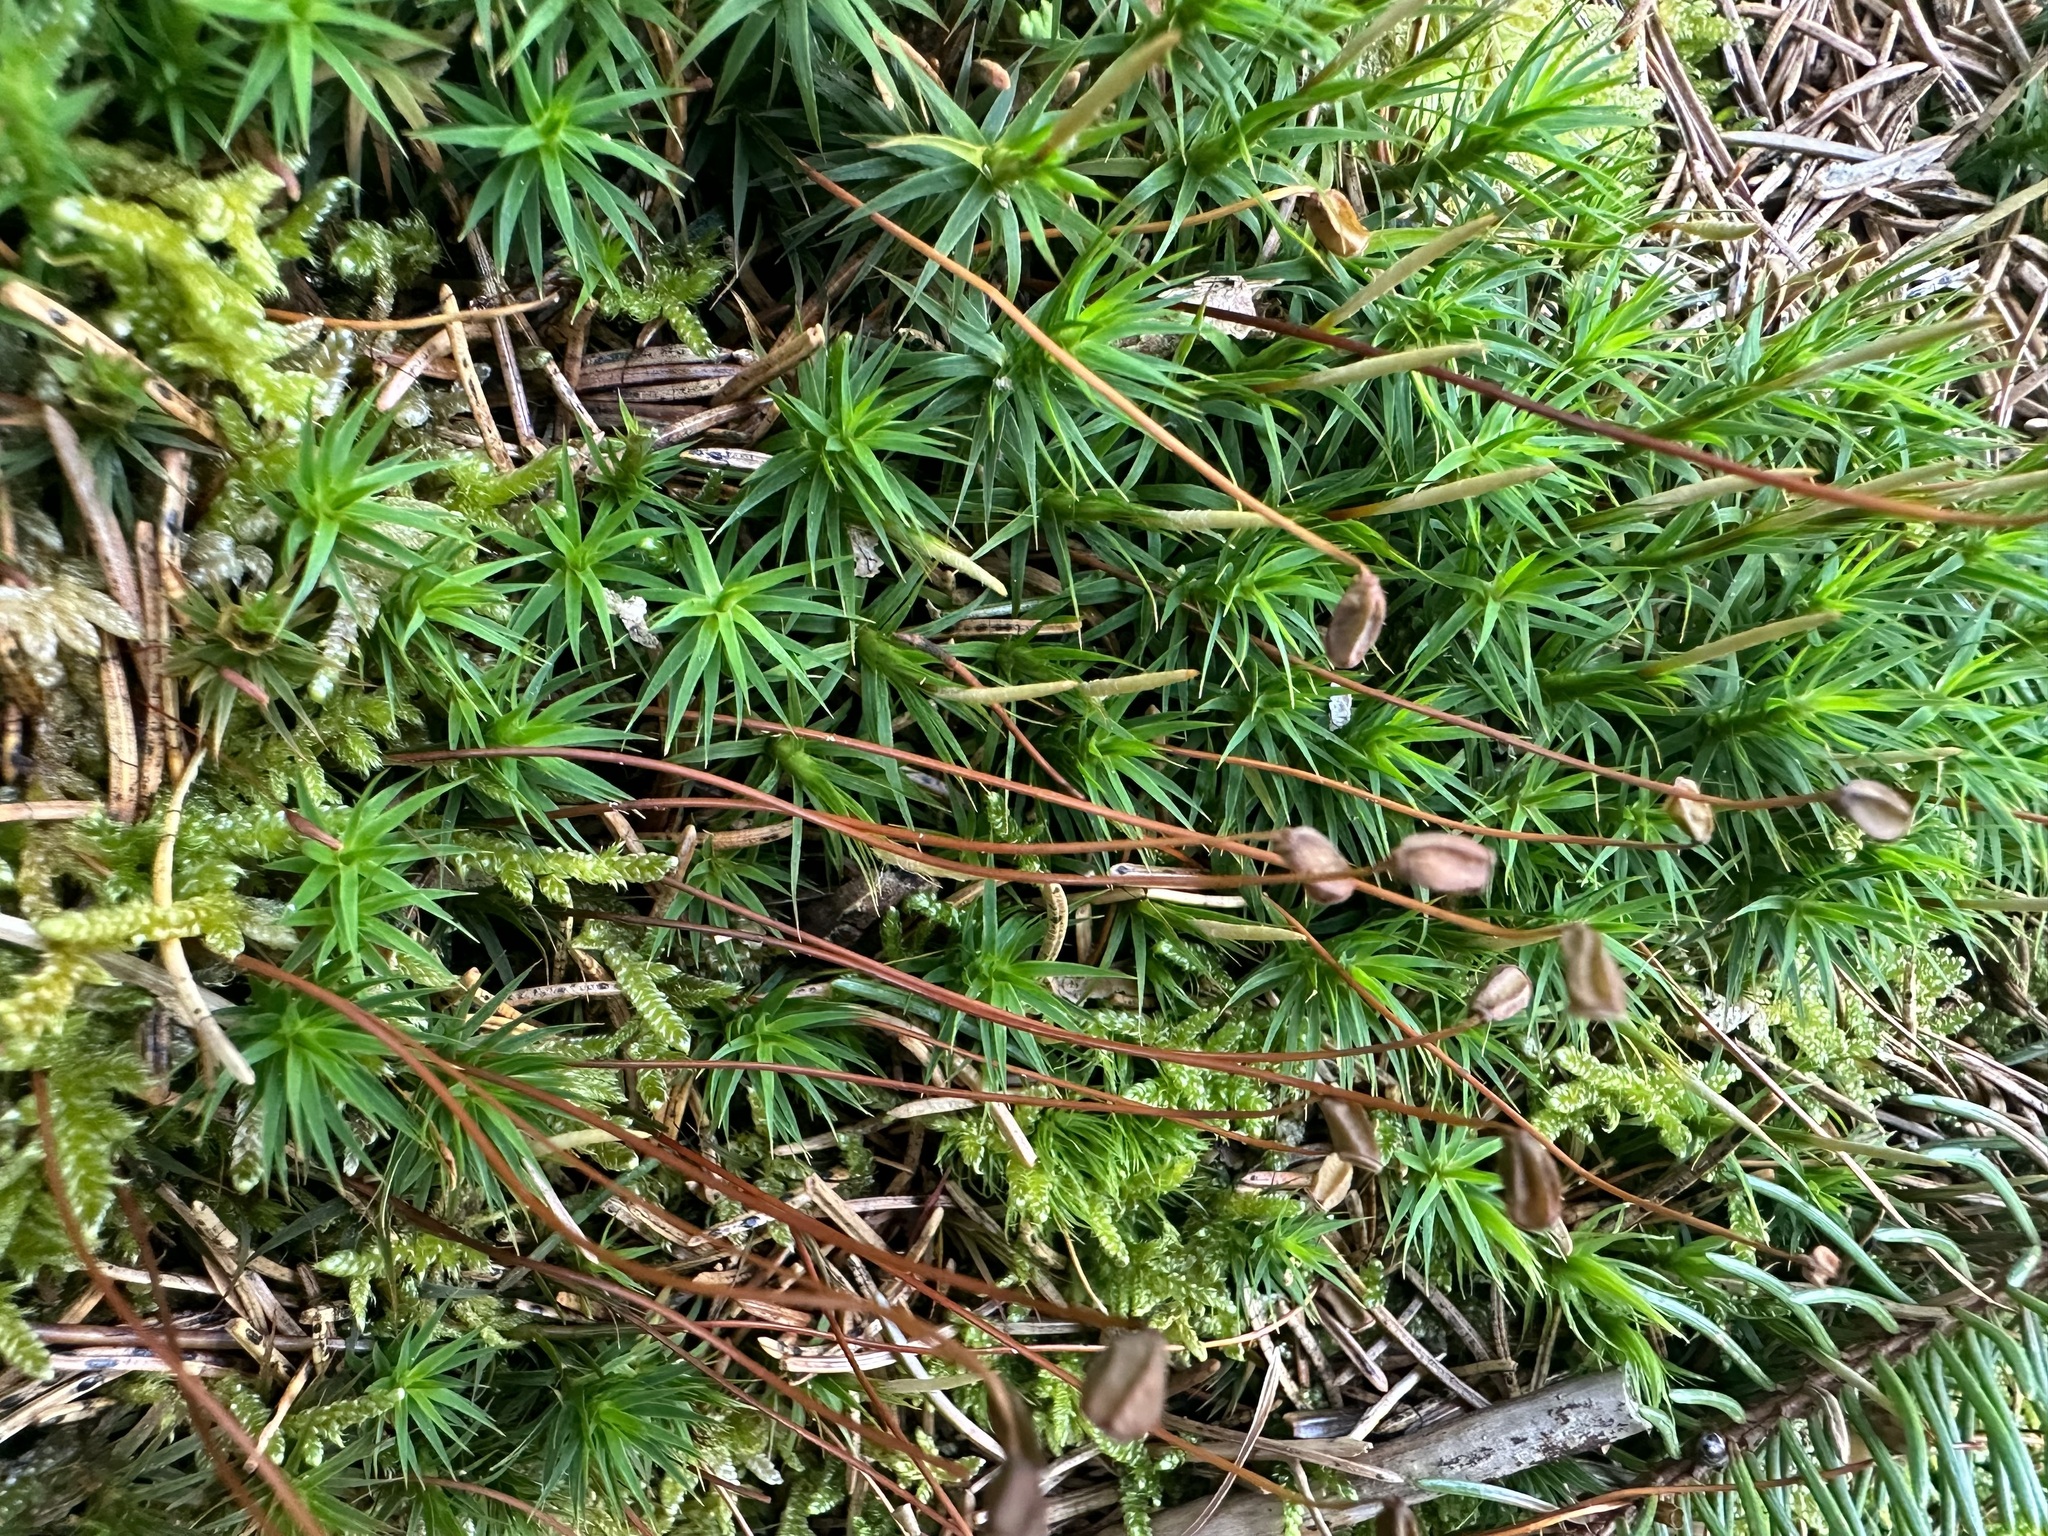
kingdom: Plantae
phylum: Bryophyta
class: Polytrichopsida
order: Polytrichales
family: Polytrichaceae
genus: Polytrichum
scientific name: Polytrichum formosum
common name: Bank haircap moss
